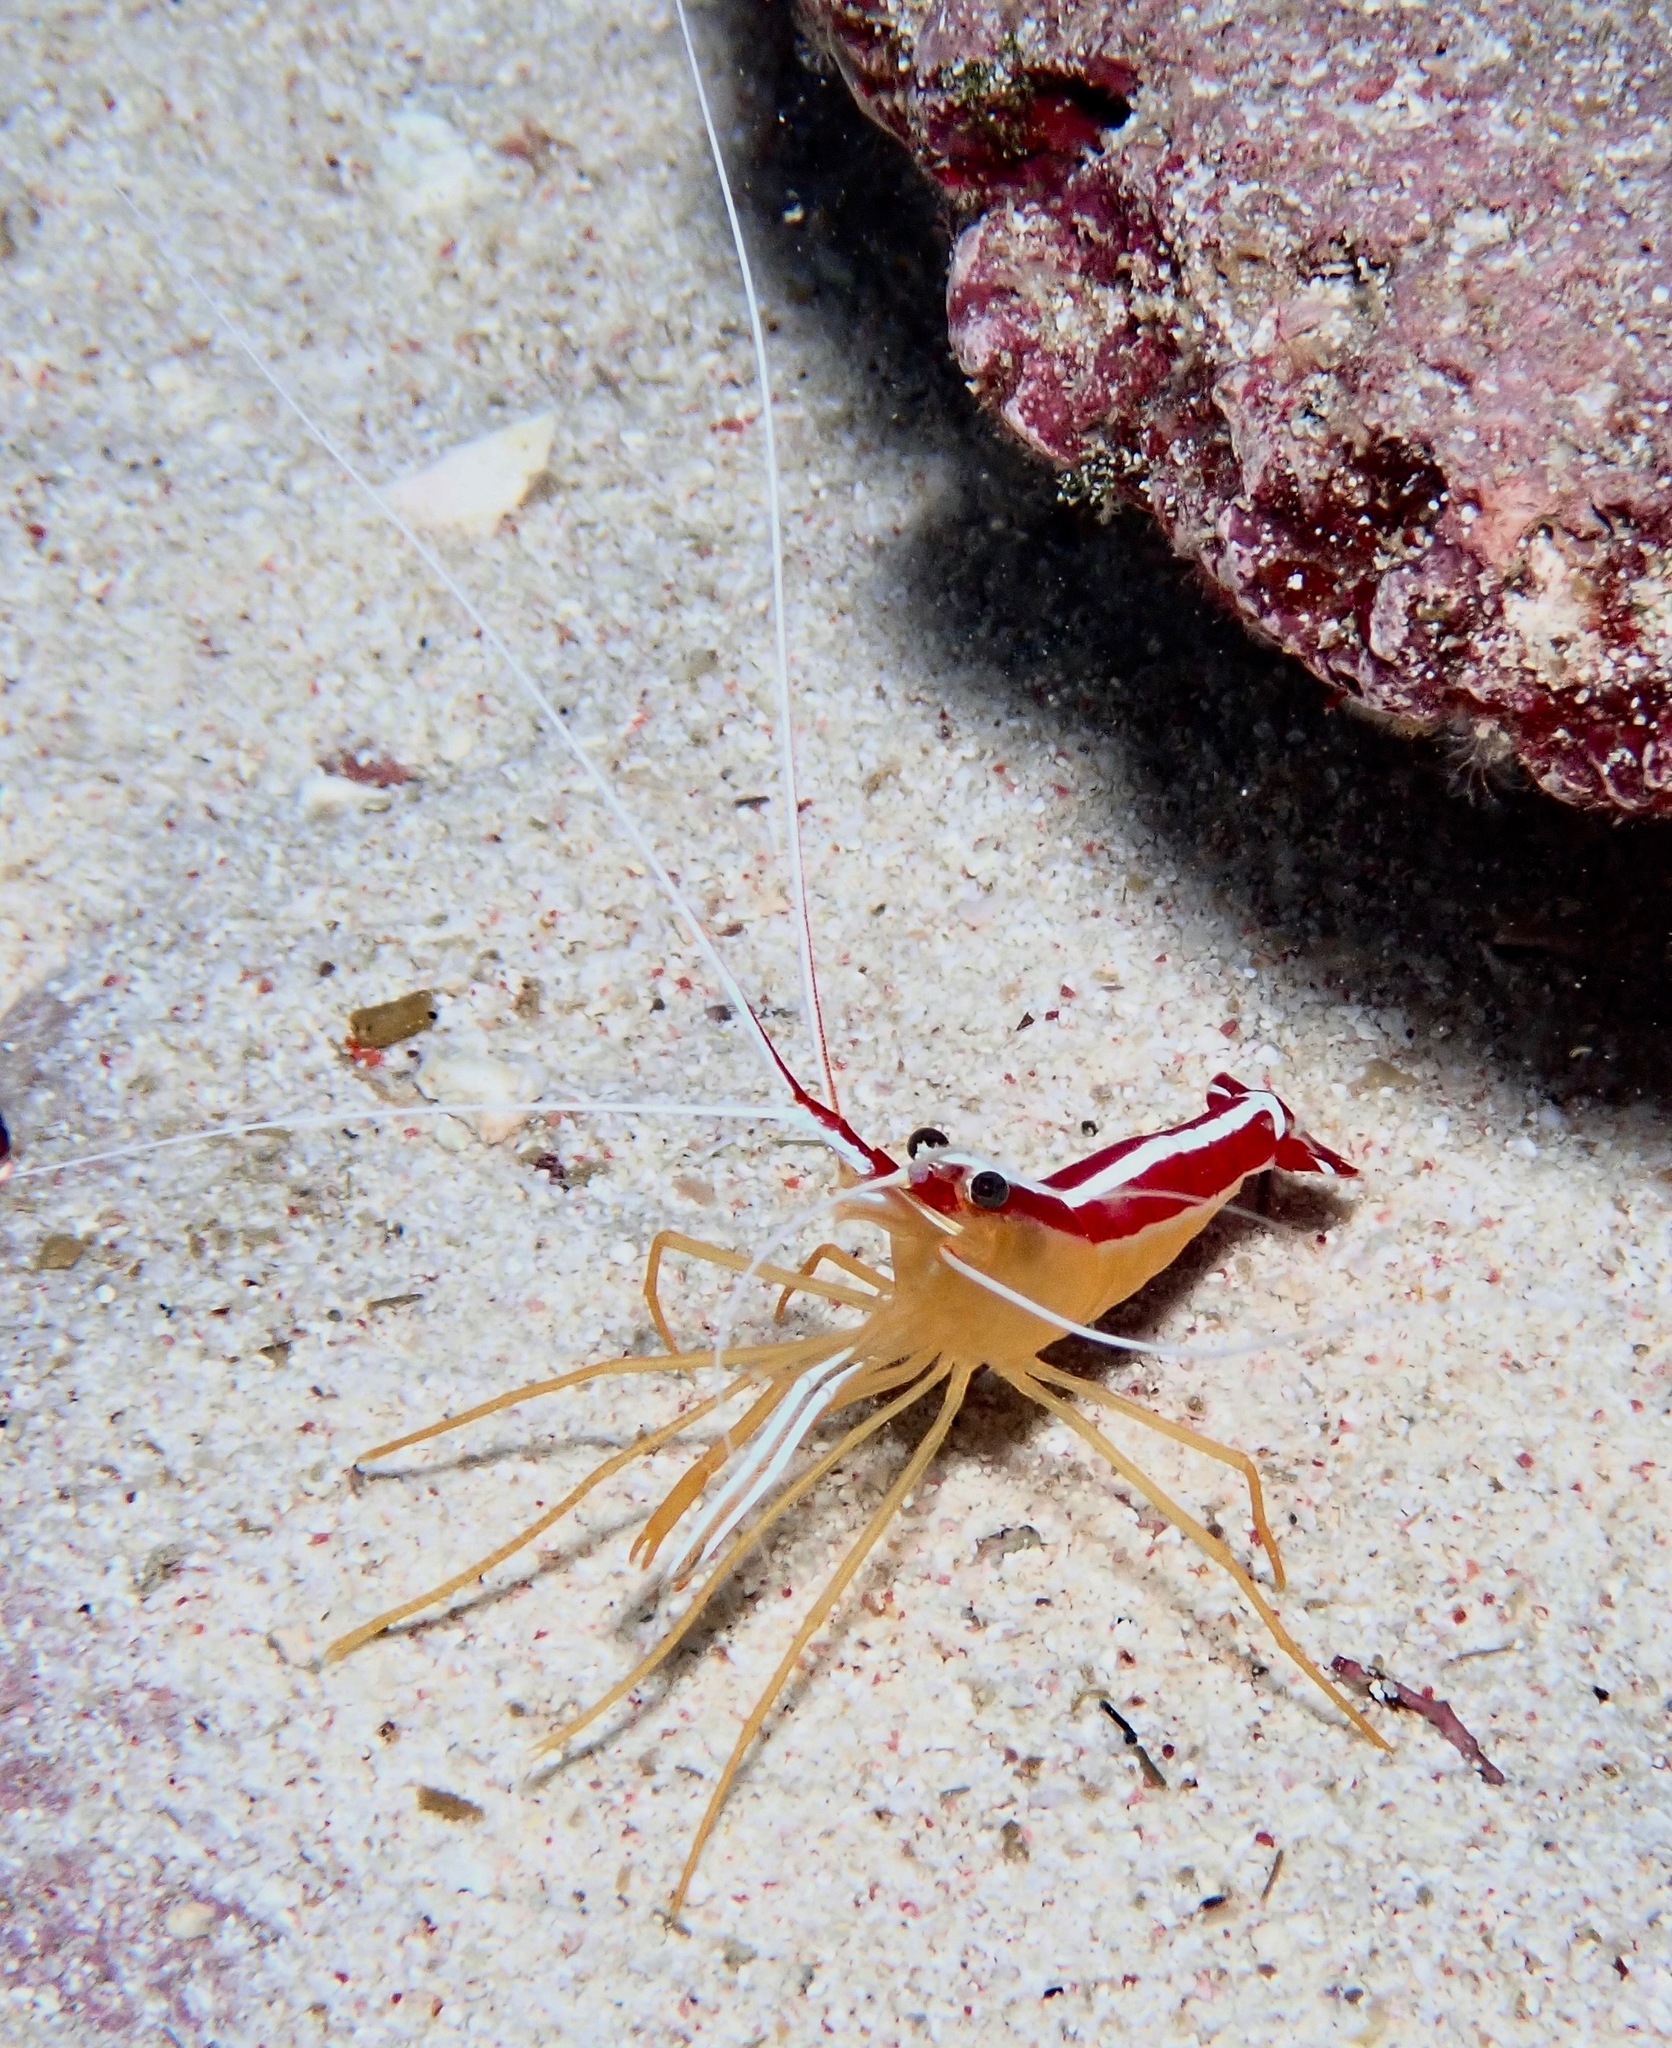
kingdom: Animalia
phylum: Arthropoda
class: Malacostraca
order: Decapoda
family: Lysmatidae
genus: Lysmata
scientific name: Lysmata amboinensis
